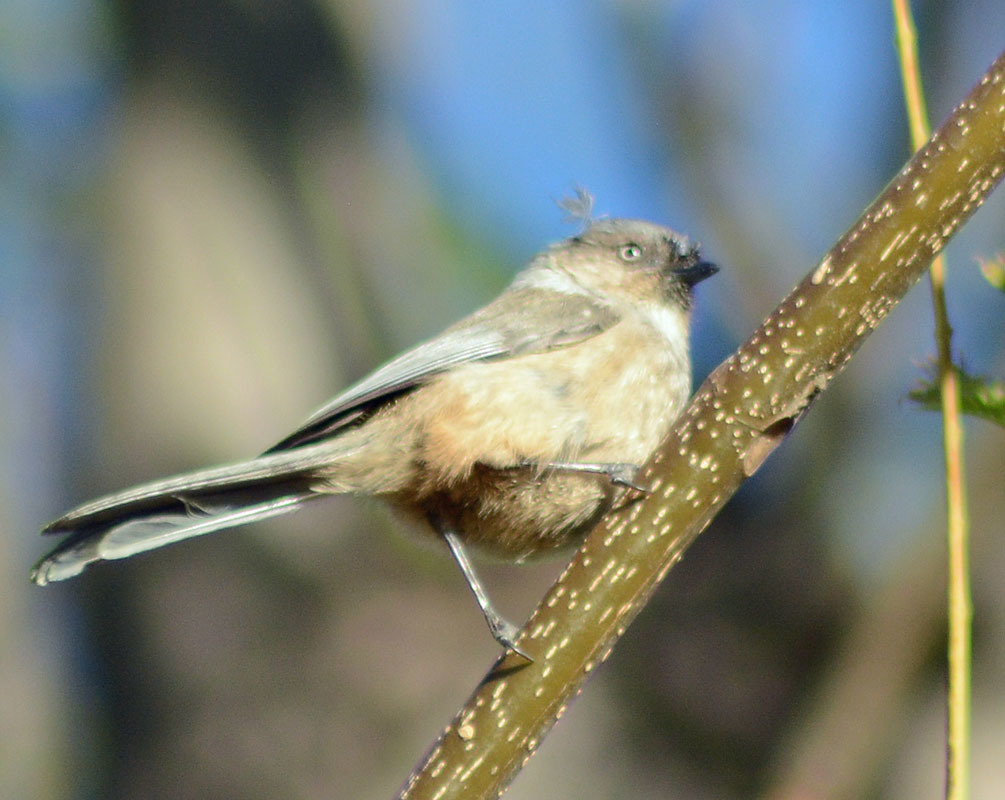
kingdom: Animalia
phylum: Chordata
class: Aves
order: Passeriformes
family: Aegithalidae
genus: Psaltriparus
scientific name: Psaltriparus minimus
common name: American bushtit
